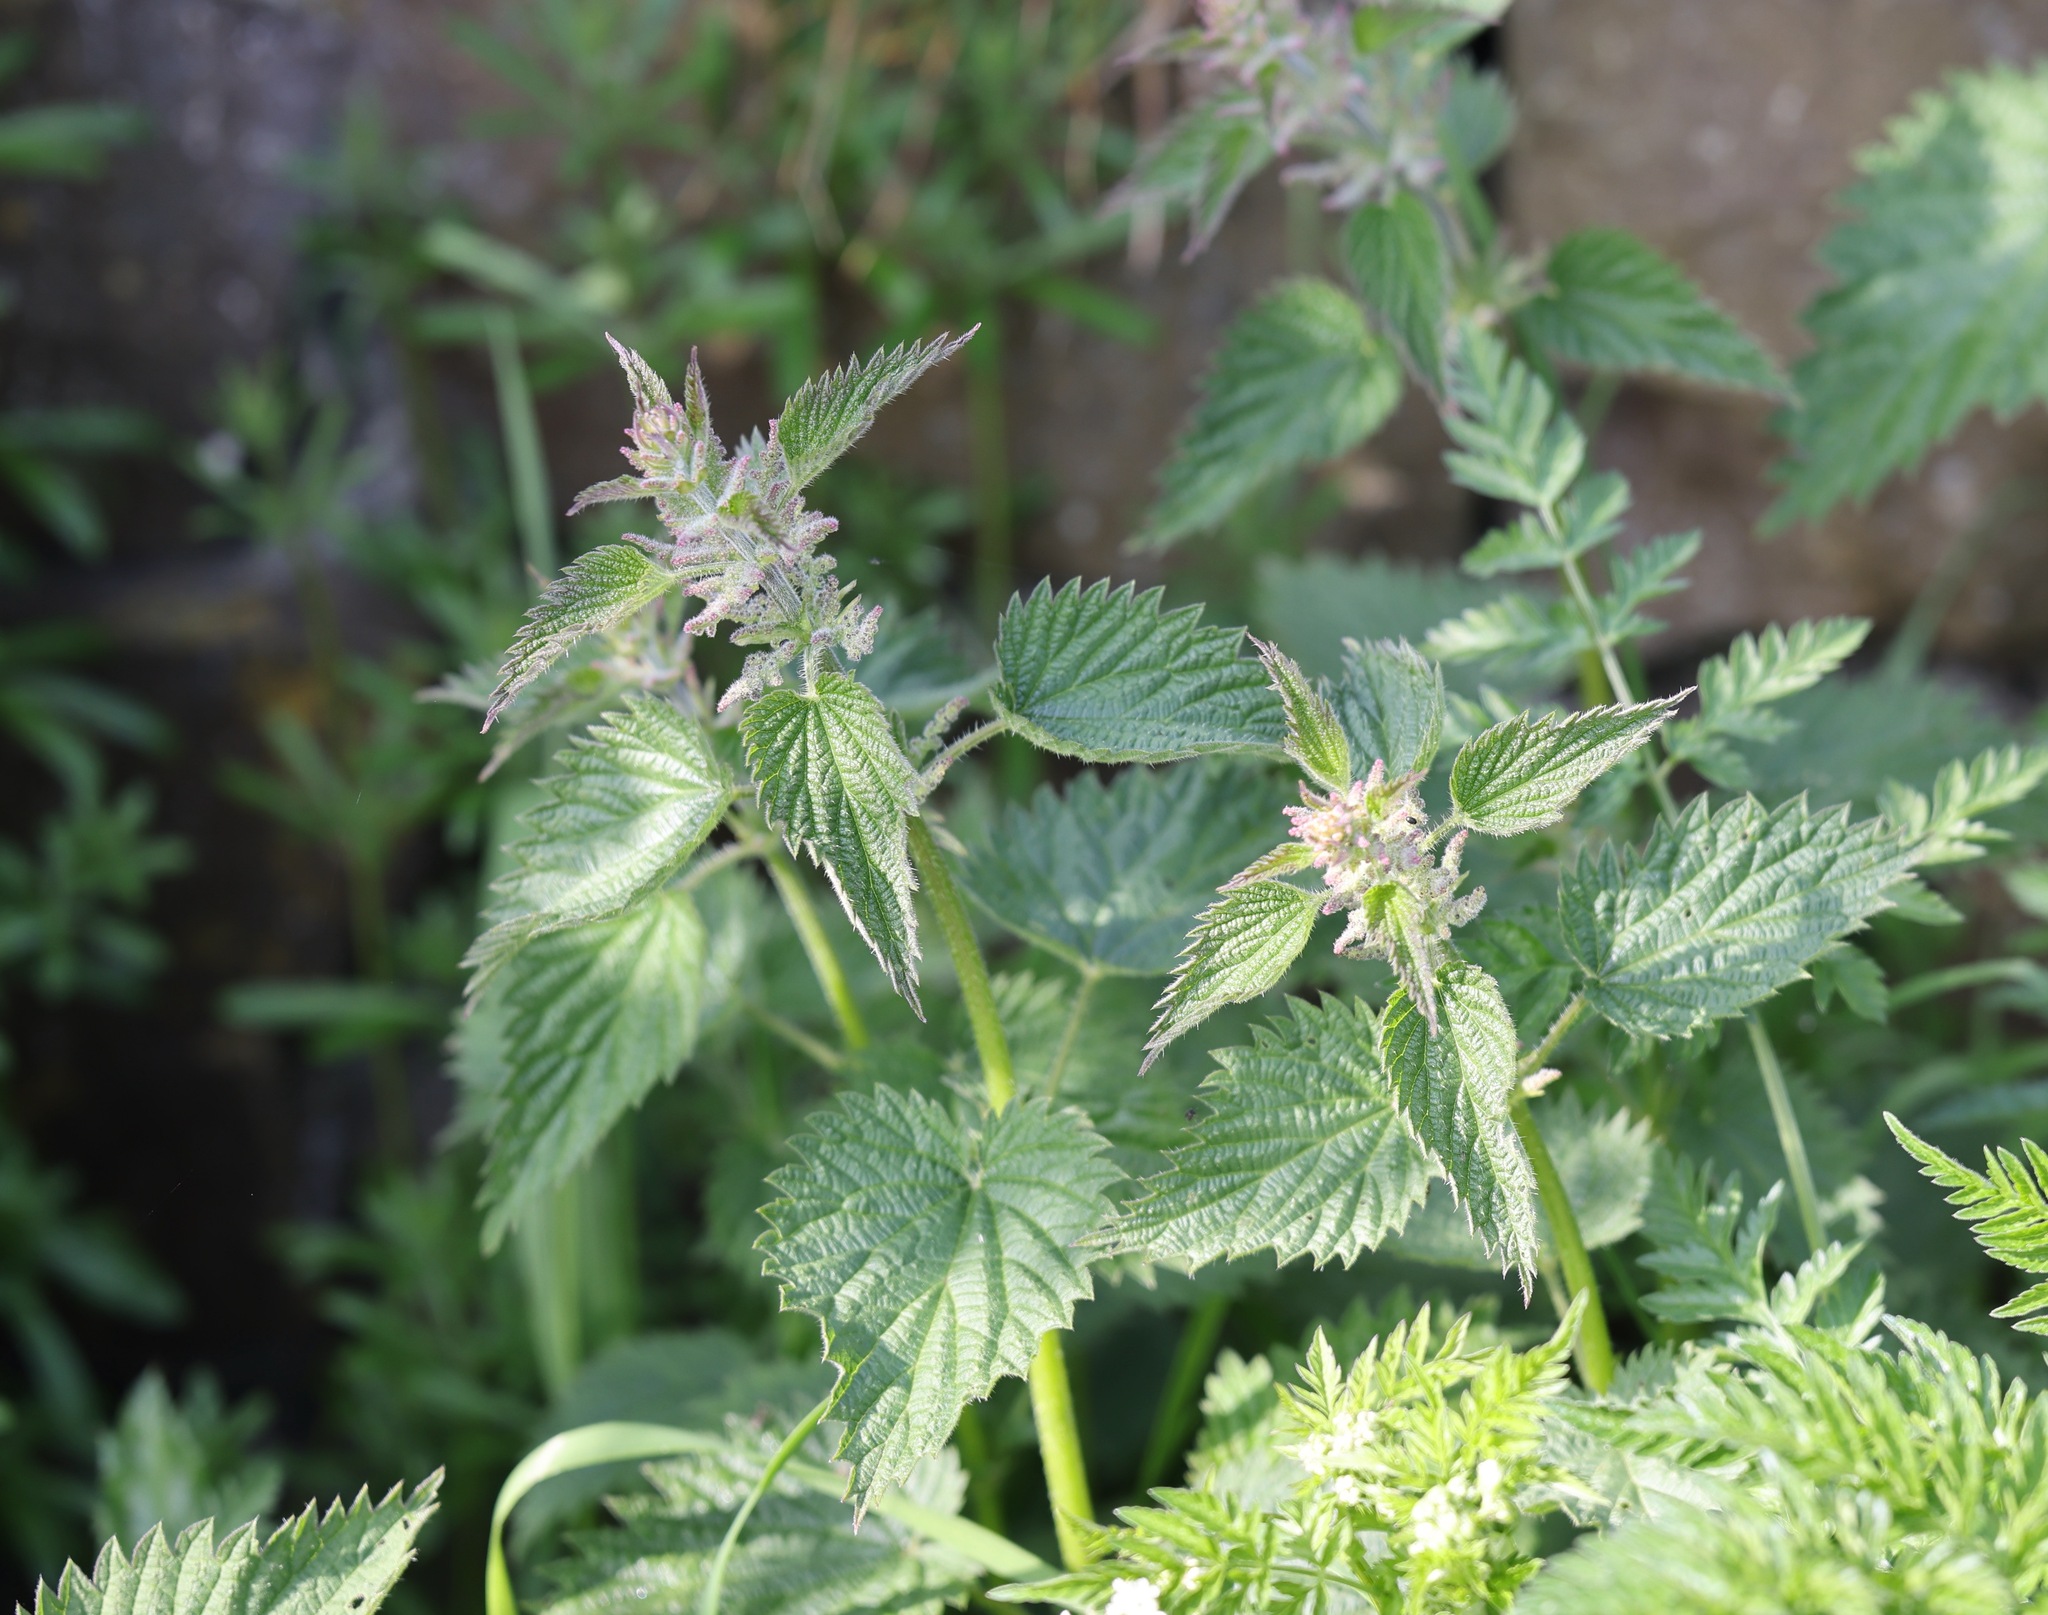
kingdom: Plantae
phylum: Tracheophyta
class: Magnoliopsida
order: Rosales
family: Urticaceae
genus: Urtica
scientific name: Urtica dioica
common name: Common nettle
